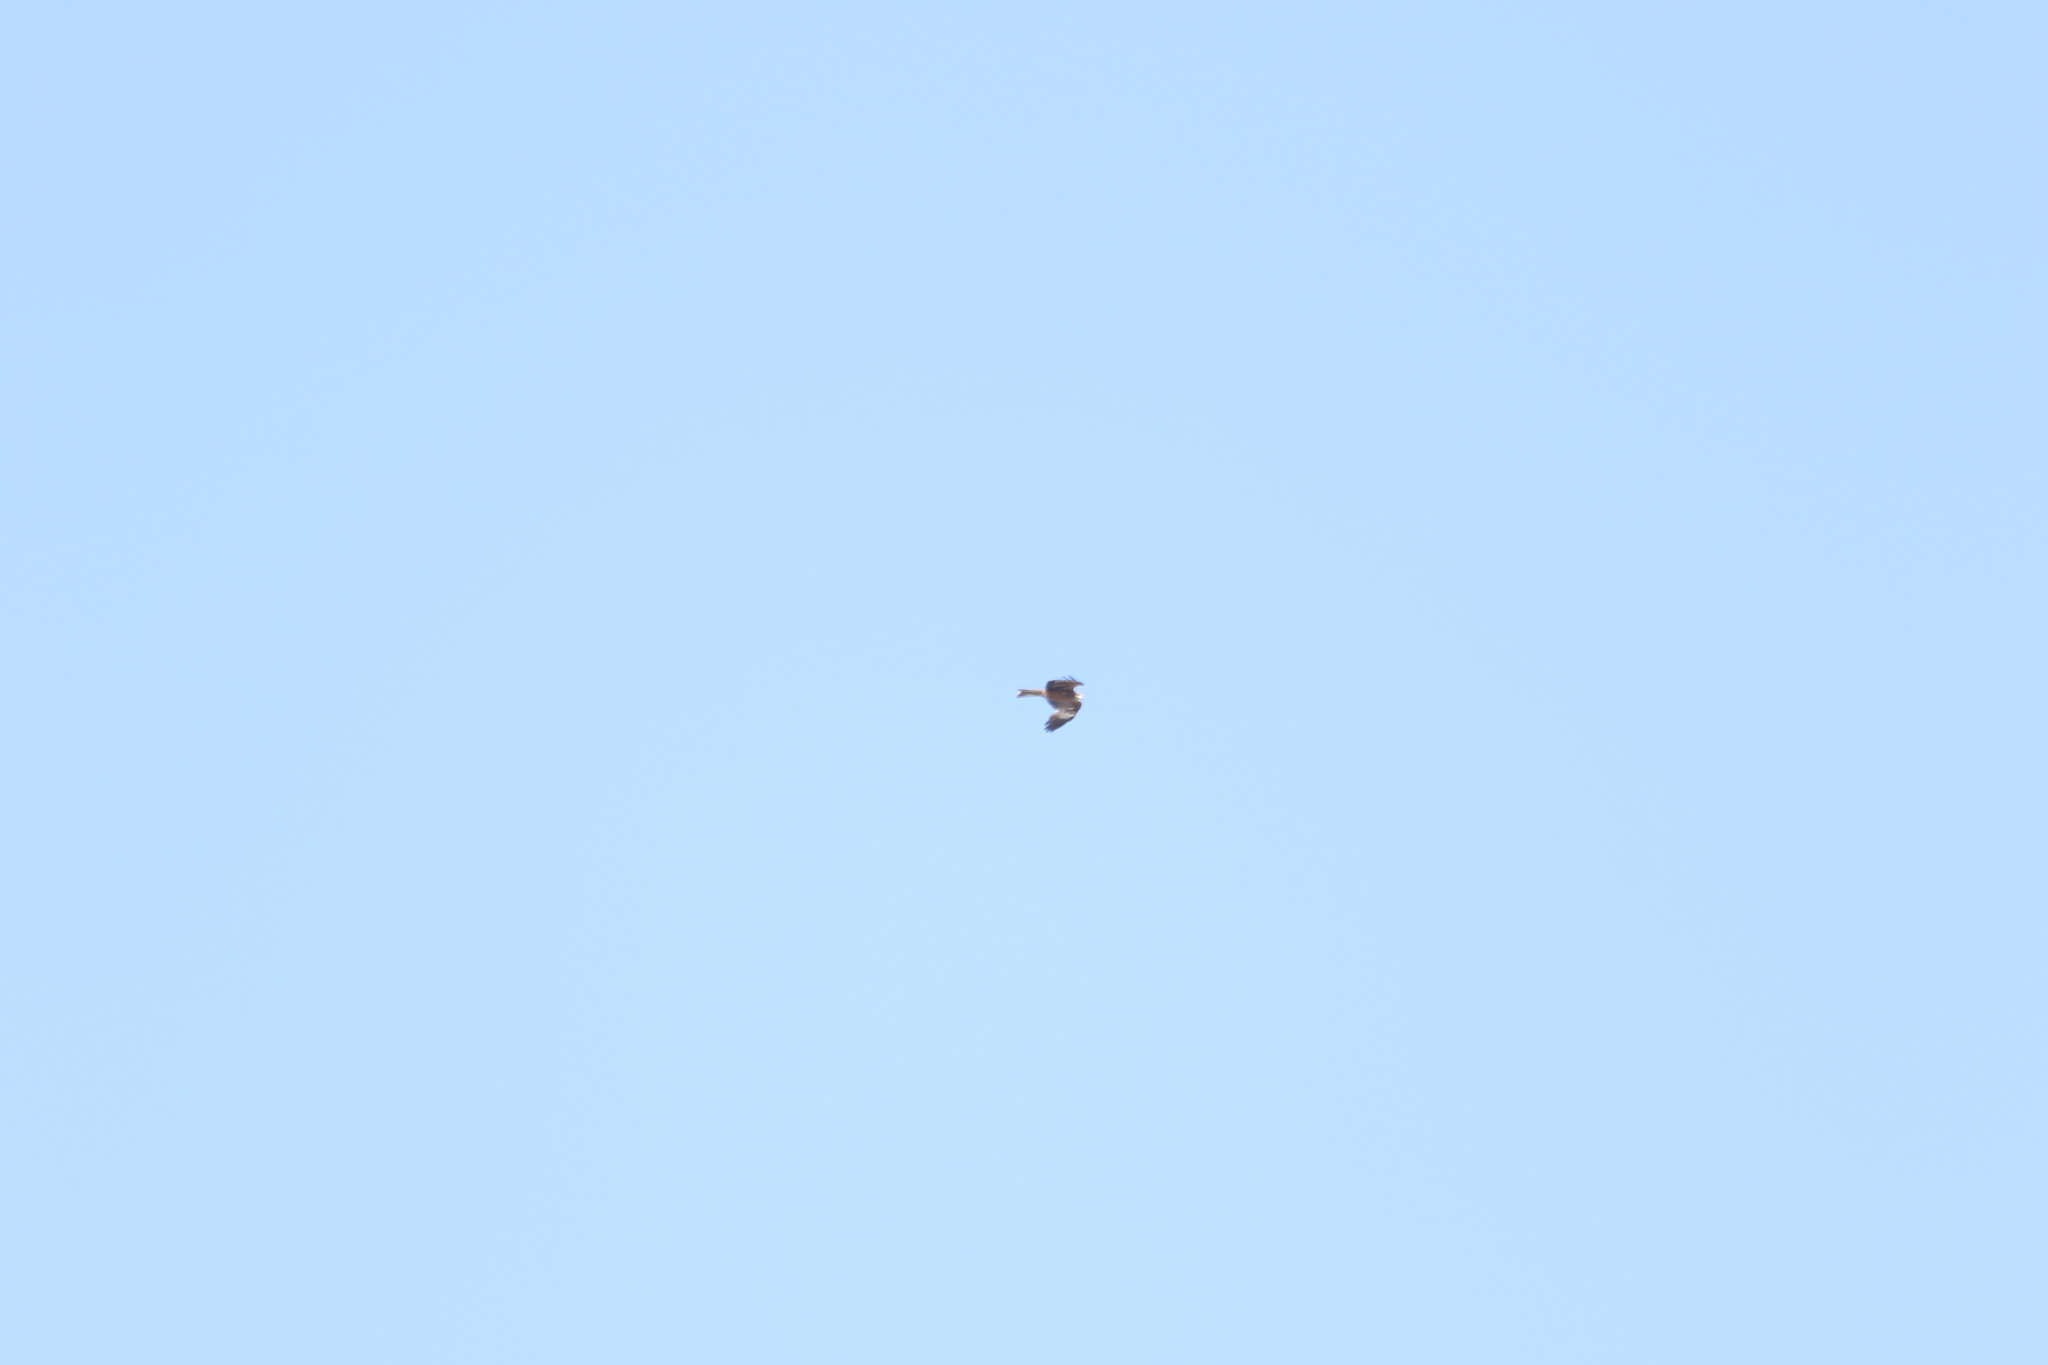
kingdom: Animalia
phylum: Chordata
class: Aves
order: Accipitriformes
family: Accipitridae
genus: Milvus
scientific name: Milvus migrans
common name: Black kite
